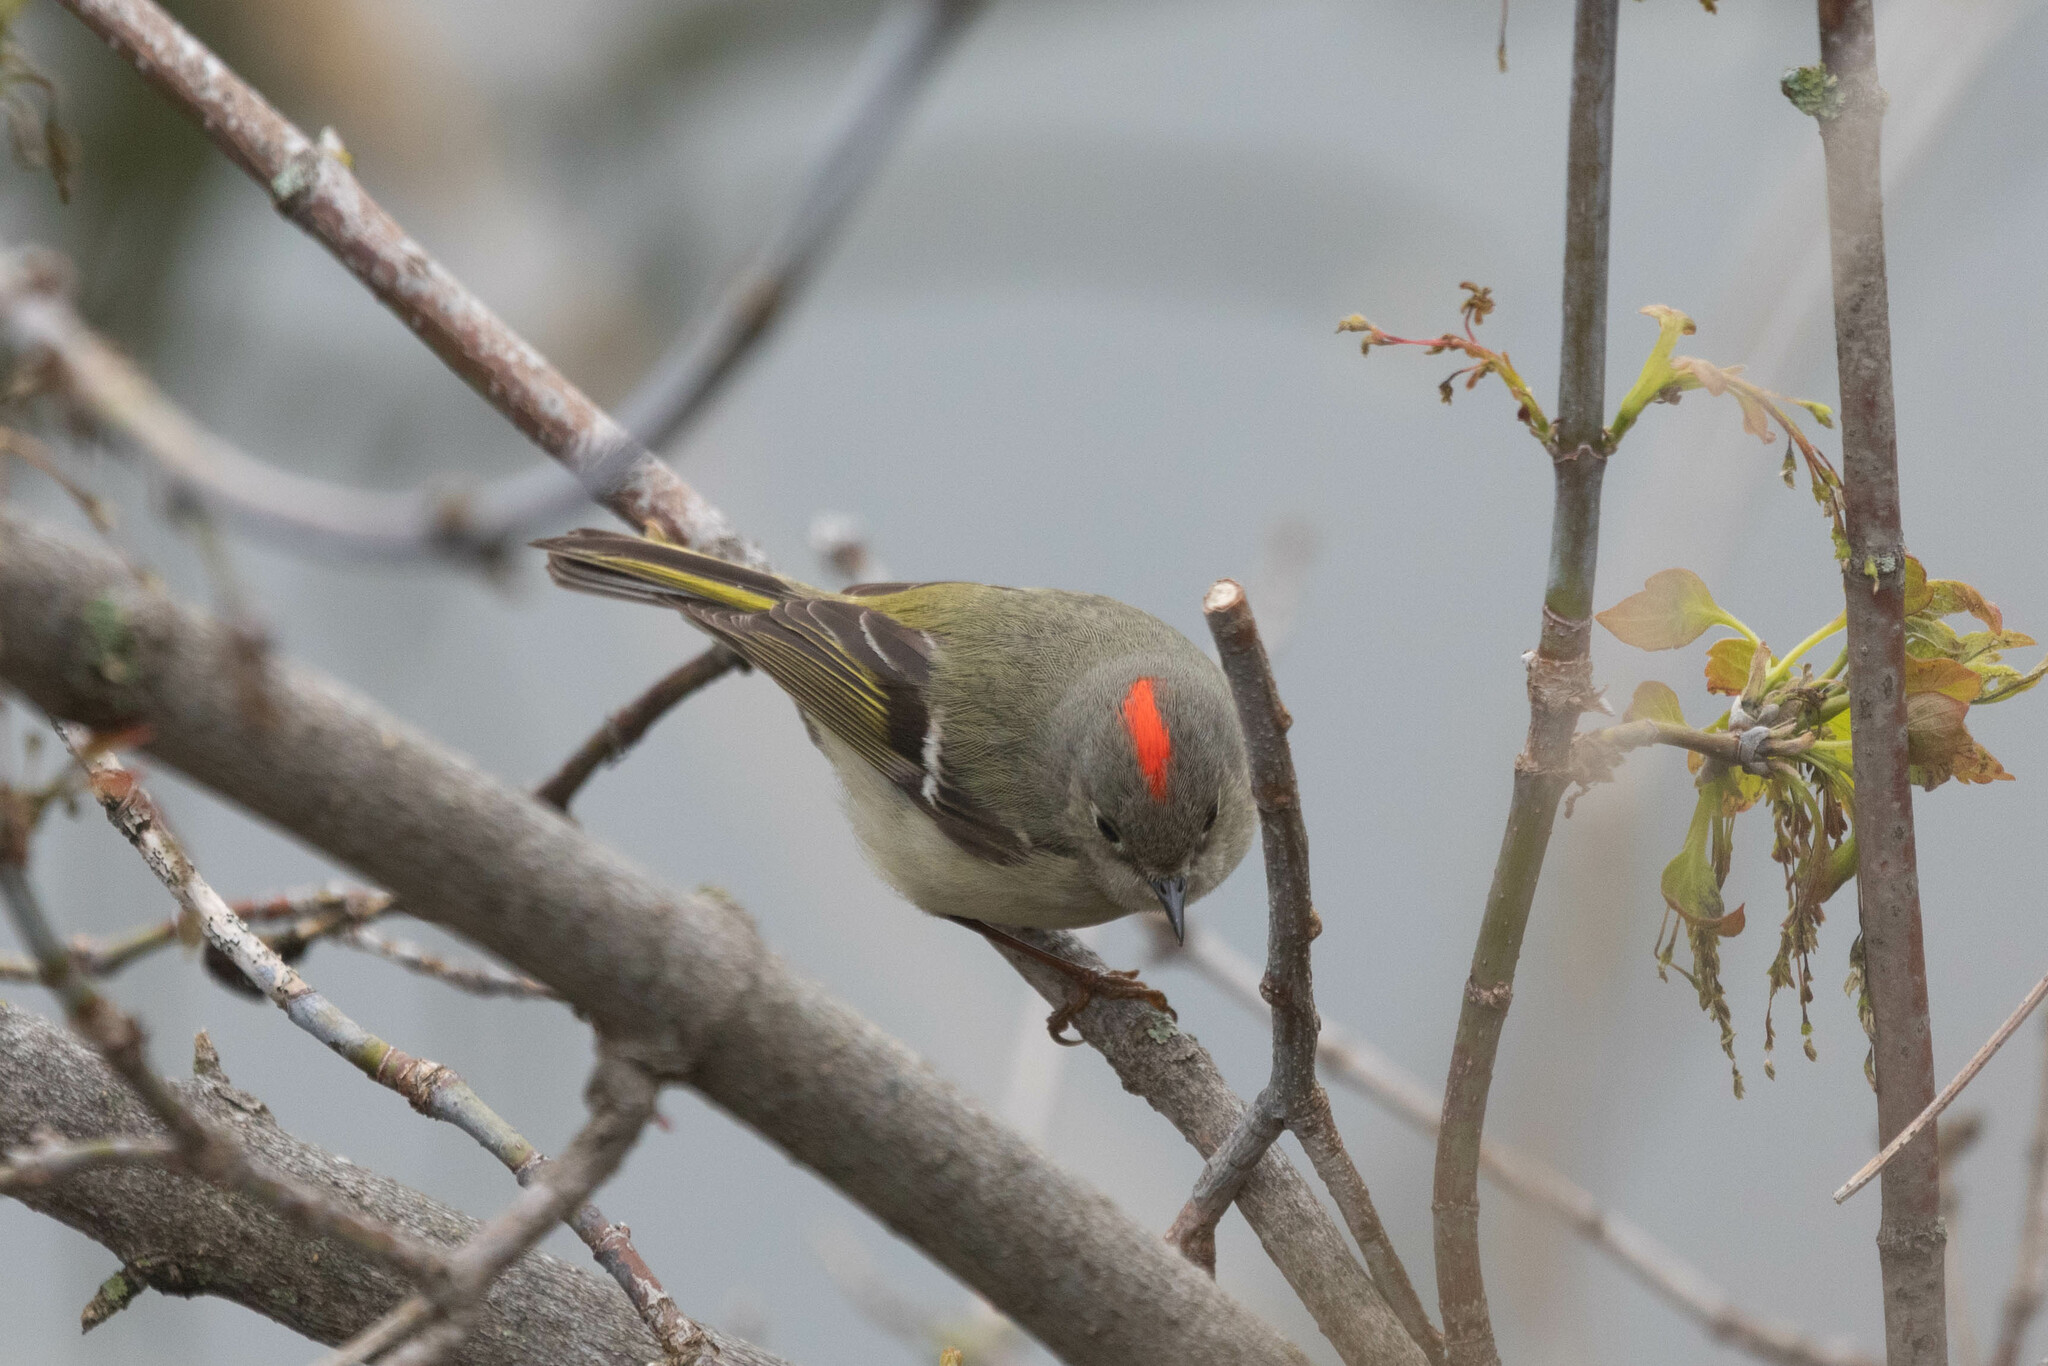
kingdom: Animalia
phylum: Chordata
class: Aves
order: Passeriformes
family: Regulidae
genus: Regulus
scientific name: Regulus calendula
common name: Ruby-crowned kinglet
